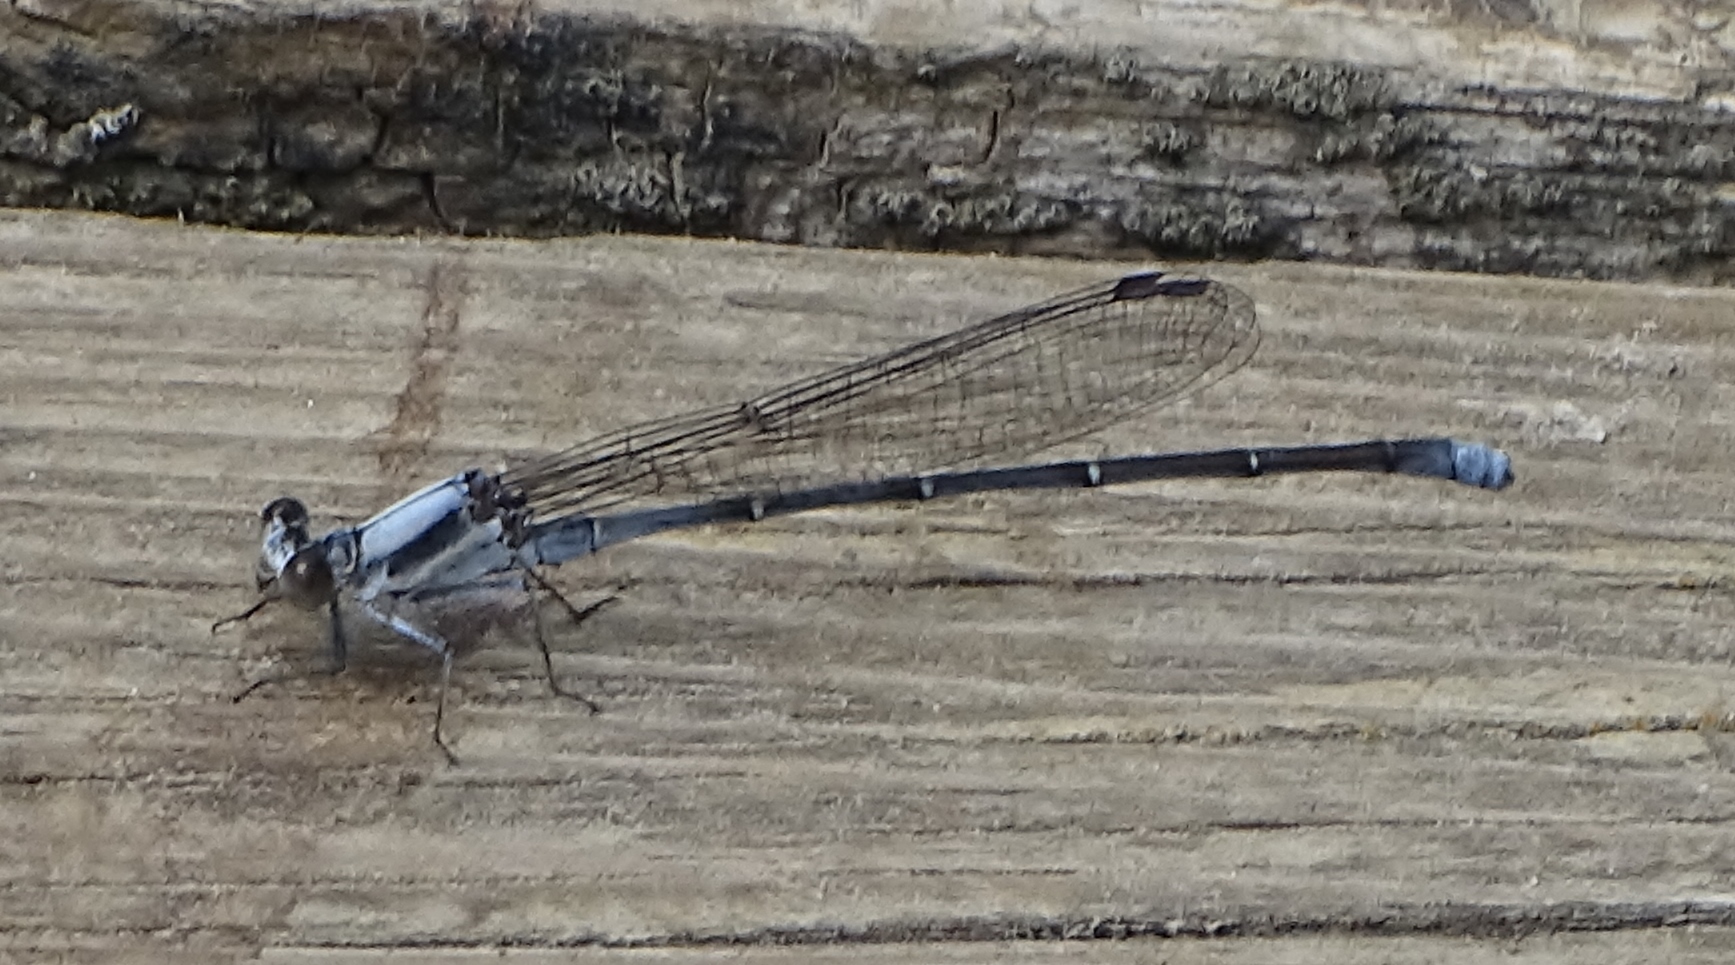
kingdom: Animalia
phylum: Arthropoda
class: Insecta
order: Odonata
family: Coenagrionidae
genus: Argia
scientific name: Argia moesta
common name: Powdered dancer
